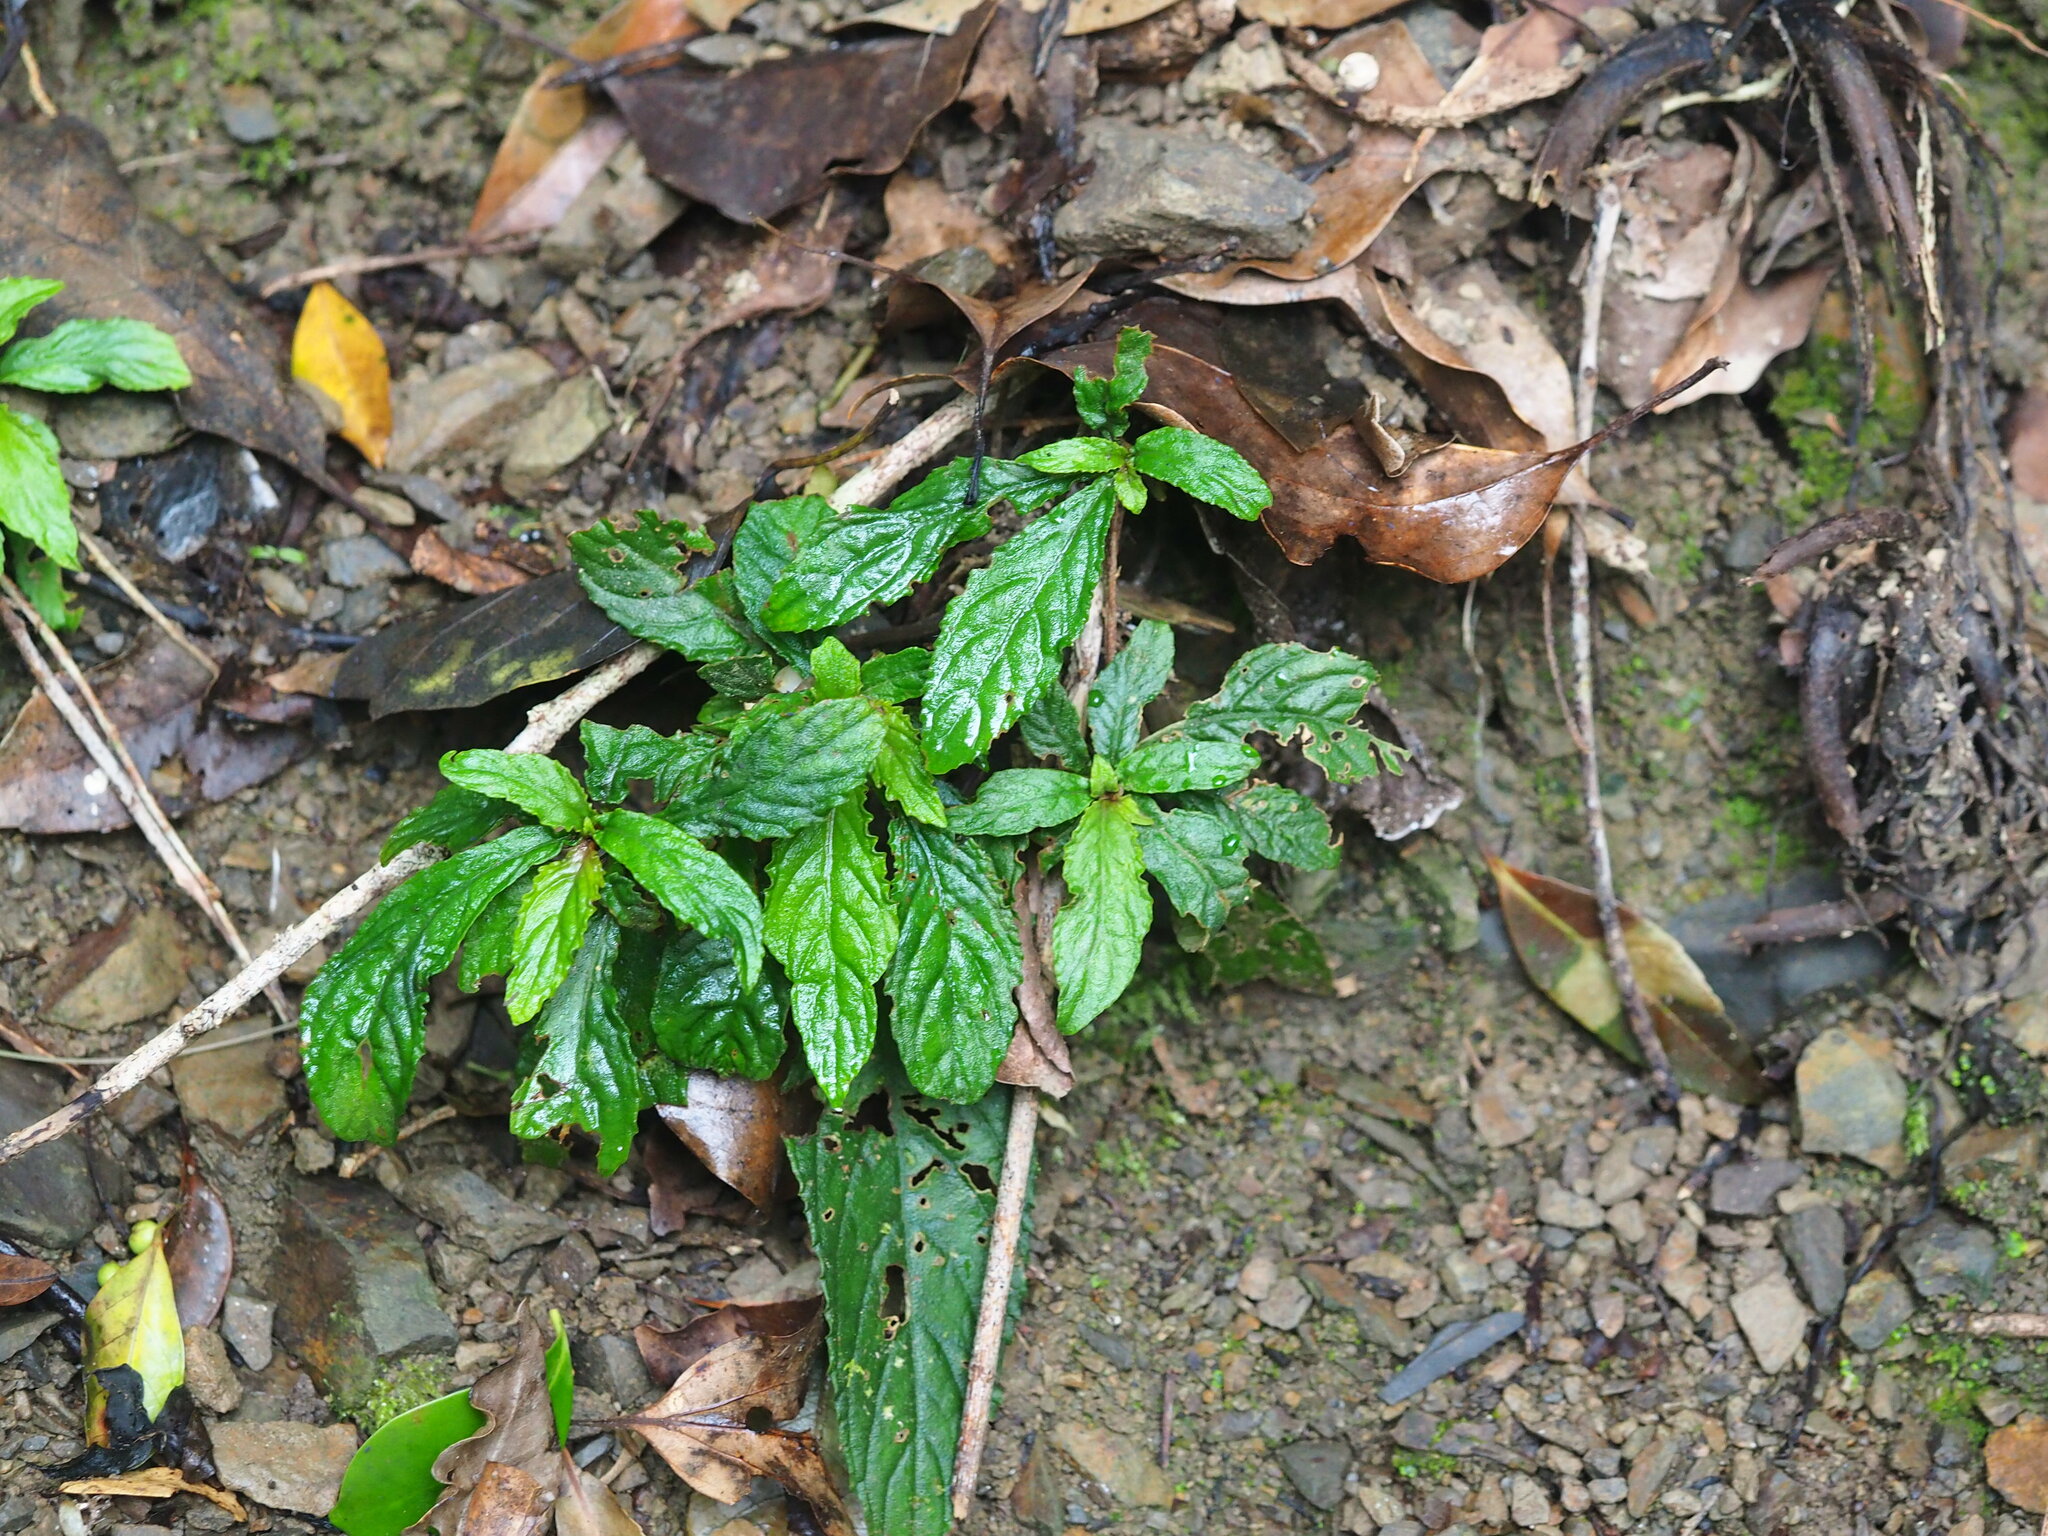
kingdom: Plantae
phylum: Tracheophyta
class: Magnoliopsida
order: Lamiales
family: Gesneriaceae
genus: Rhynchotechum
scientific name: Rhynchotechum discolor
